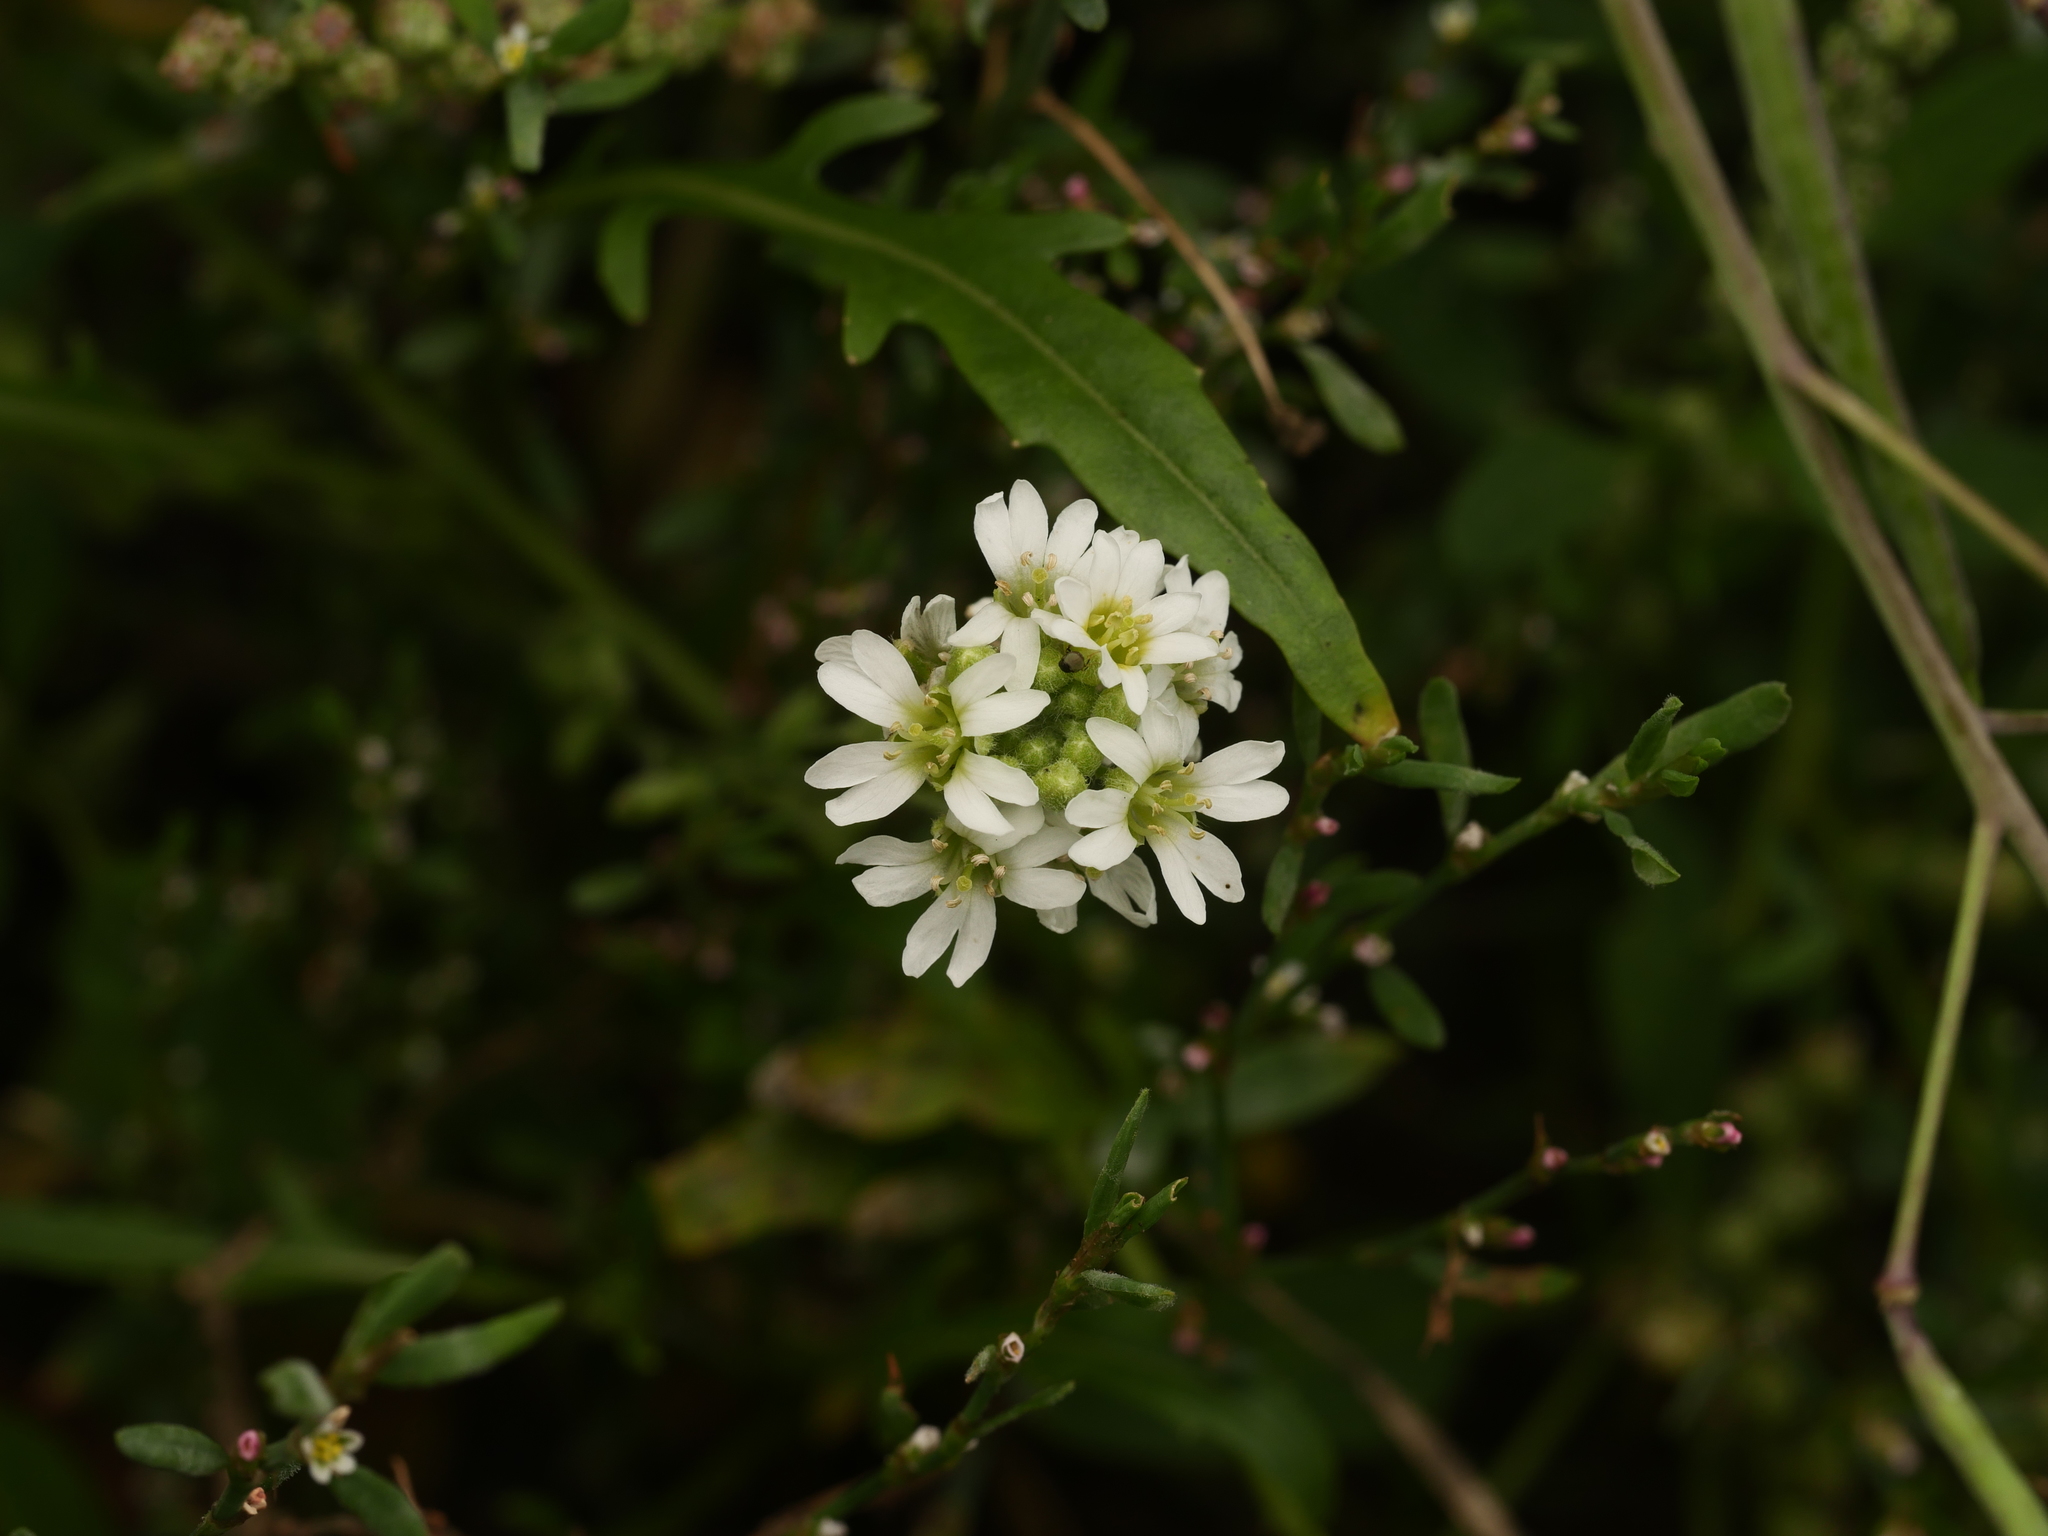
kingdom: Plantae
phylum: Tracheophyta
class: Magnoliopsida
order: Brassicales
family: Brassicaceae
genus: Berteroa
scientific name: Berteroa incana
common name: Hoary alison
